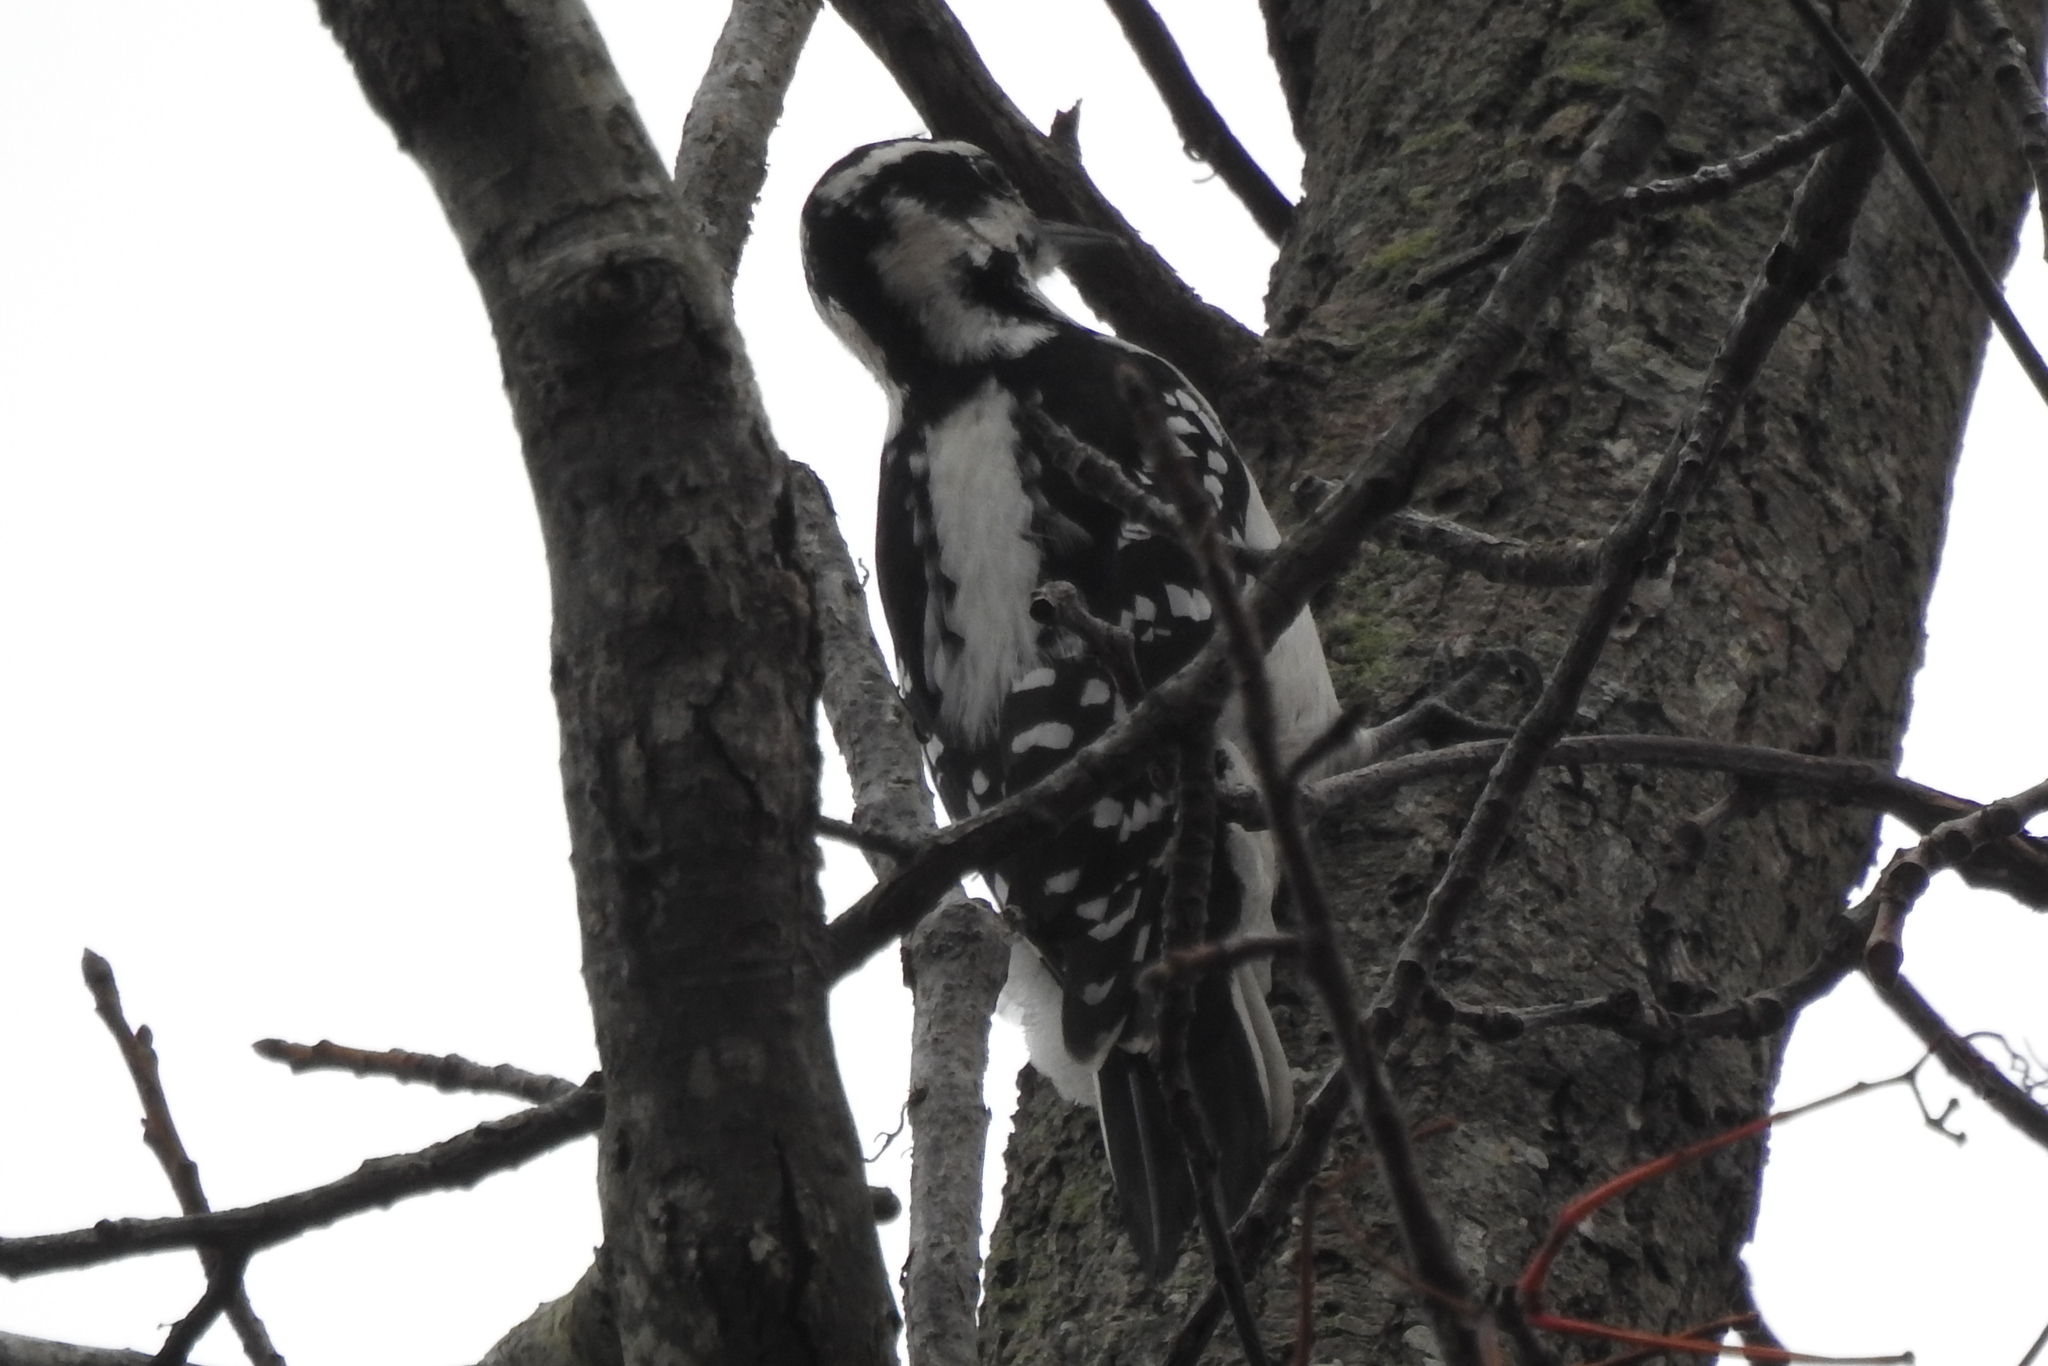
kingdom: Animalia
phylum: Chordata
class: Aves
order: Piciformes
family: Picidae
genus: Leuconotopicus
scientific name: Leuconotopicus villosus
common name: Hairy woodpecker
